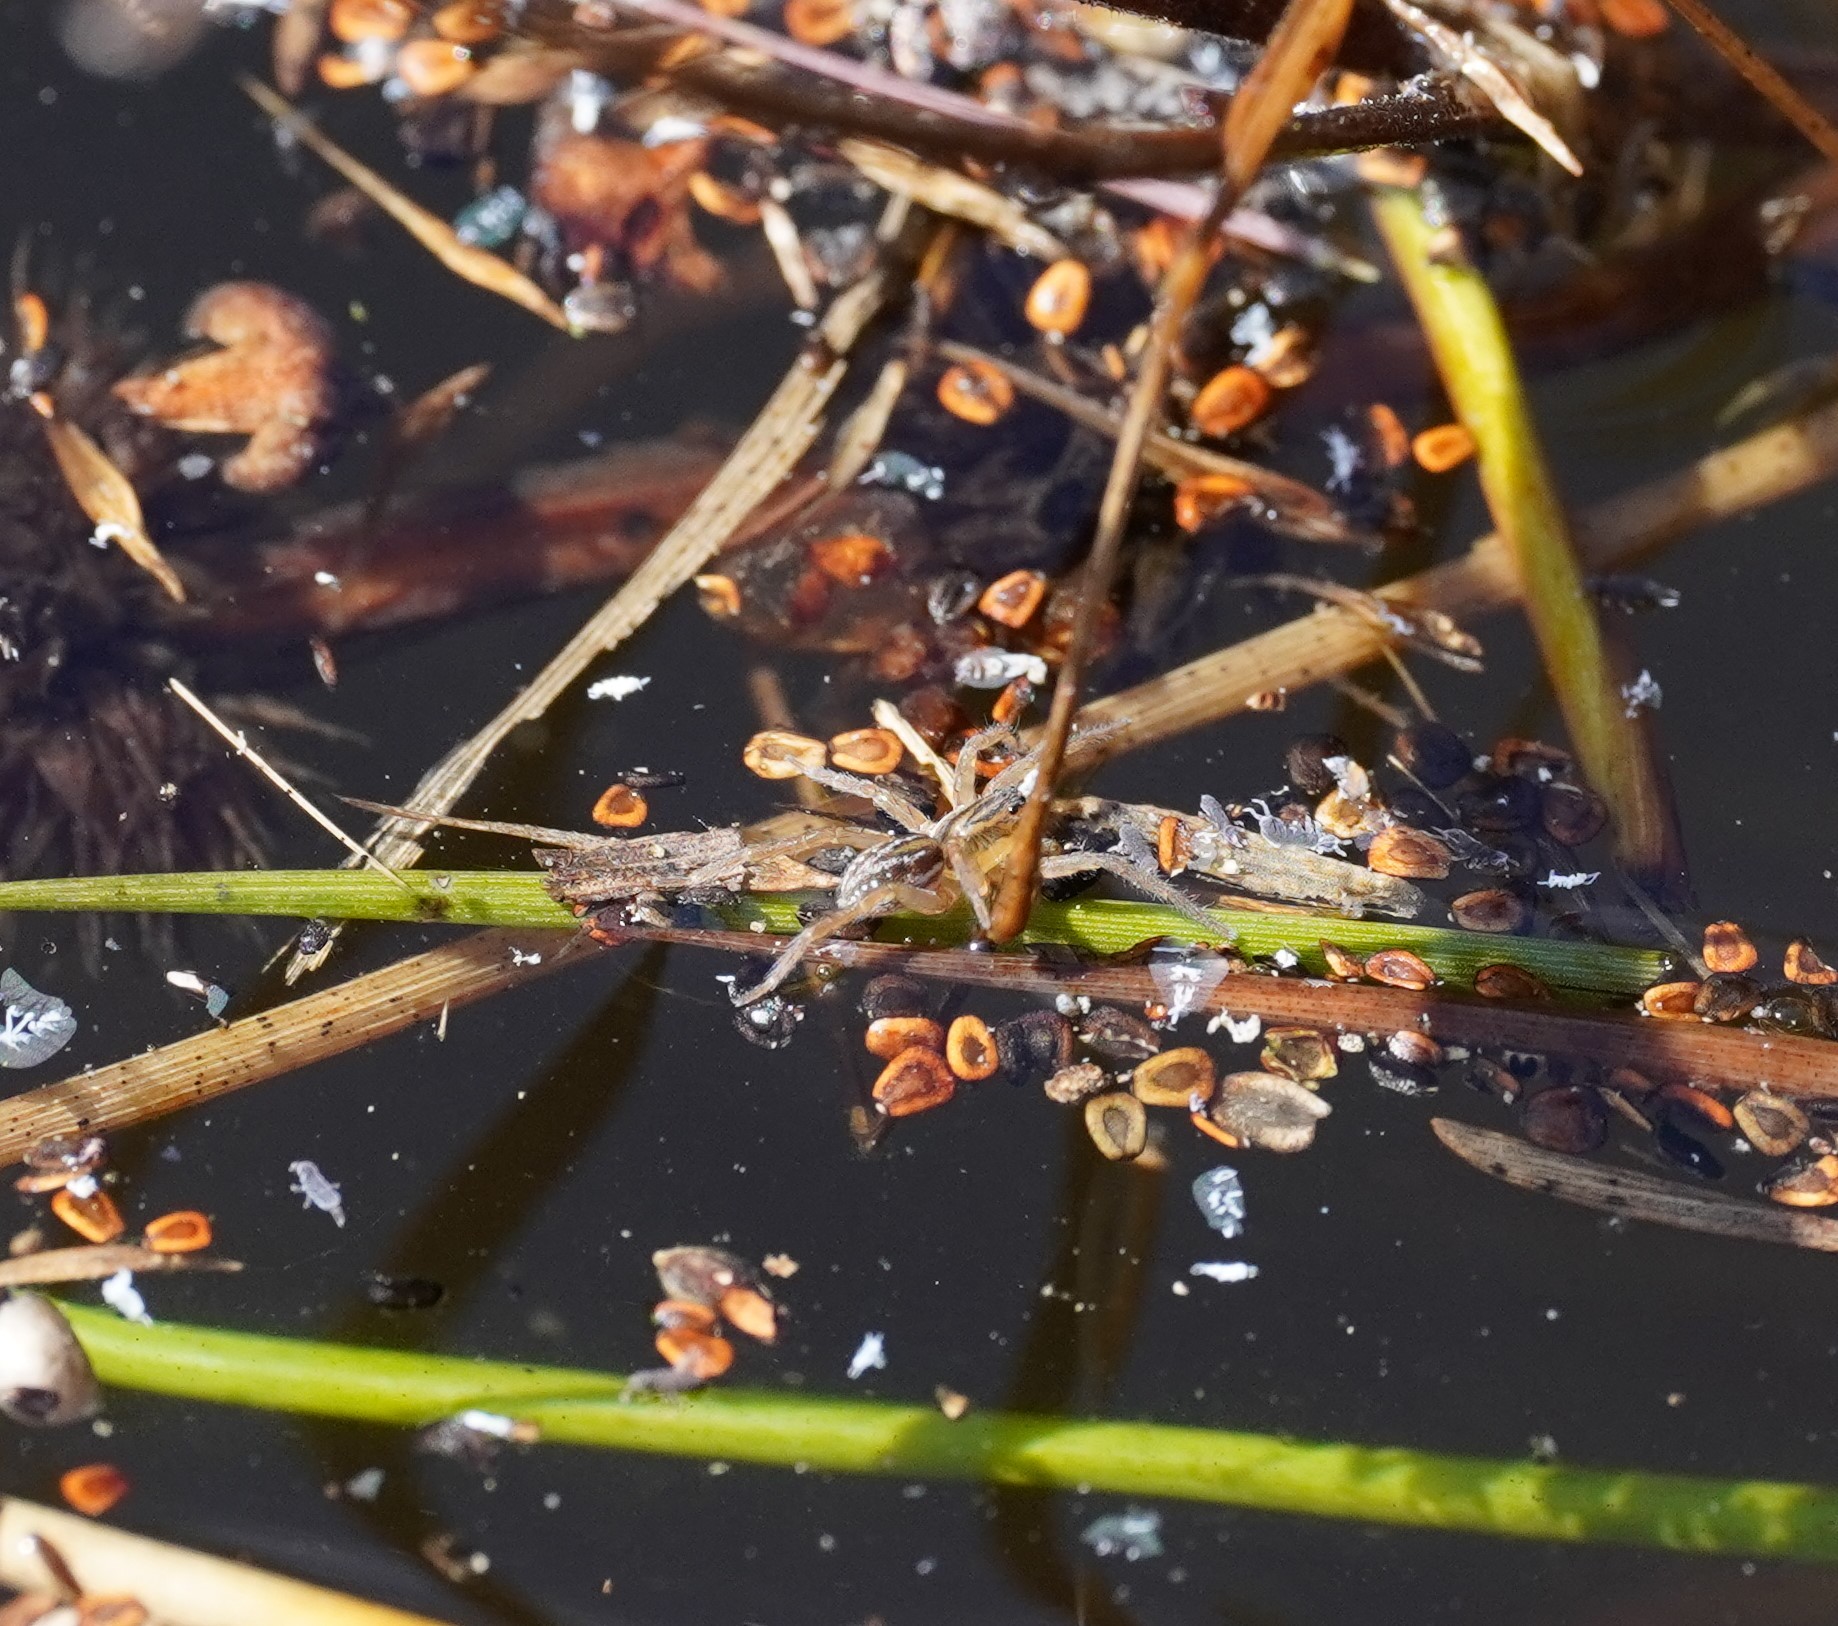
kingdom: Animalia
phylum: Arthropoda
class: Arachnida
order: Araneae
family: Lycosidae
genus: Pirata
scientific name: Pirata piraticus
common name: Pirate otter spider
